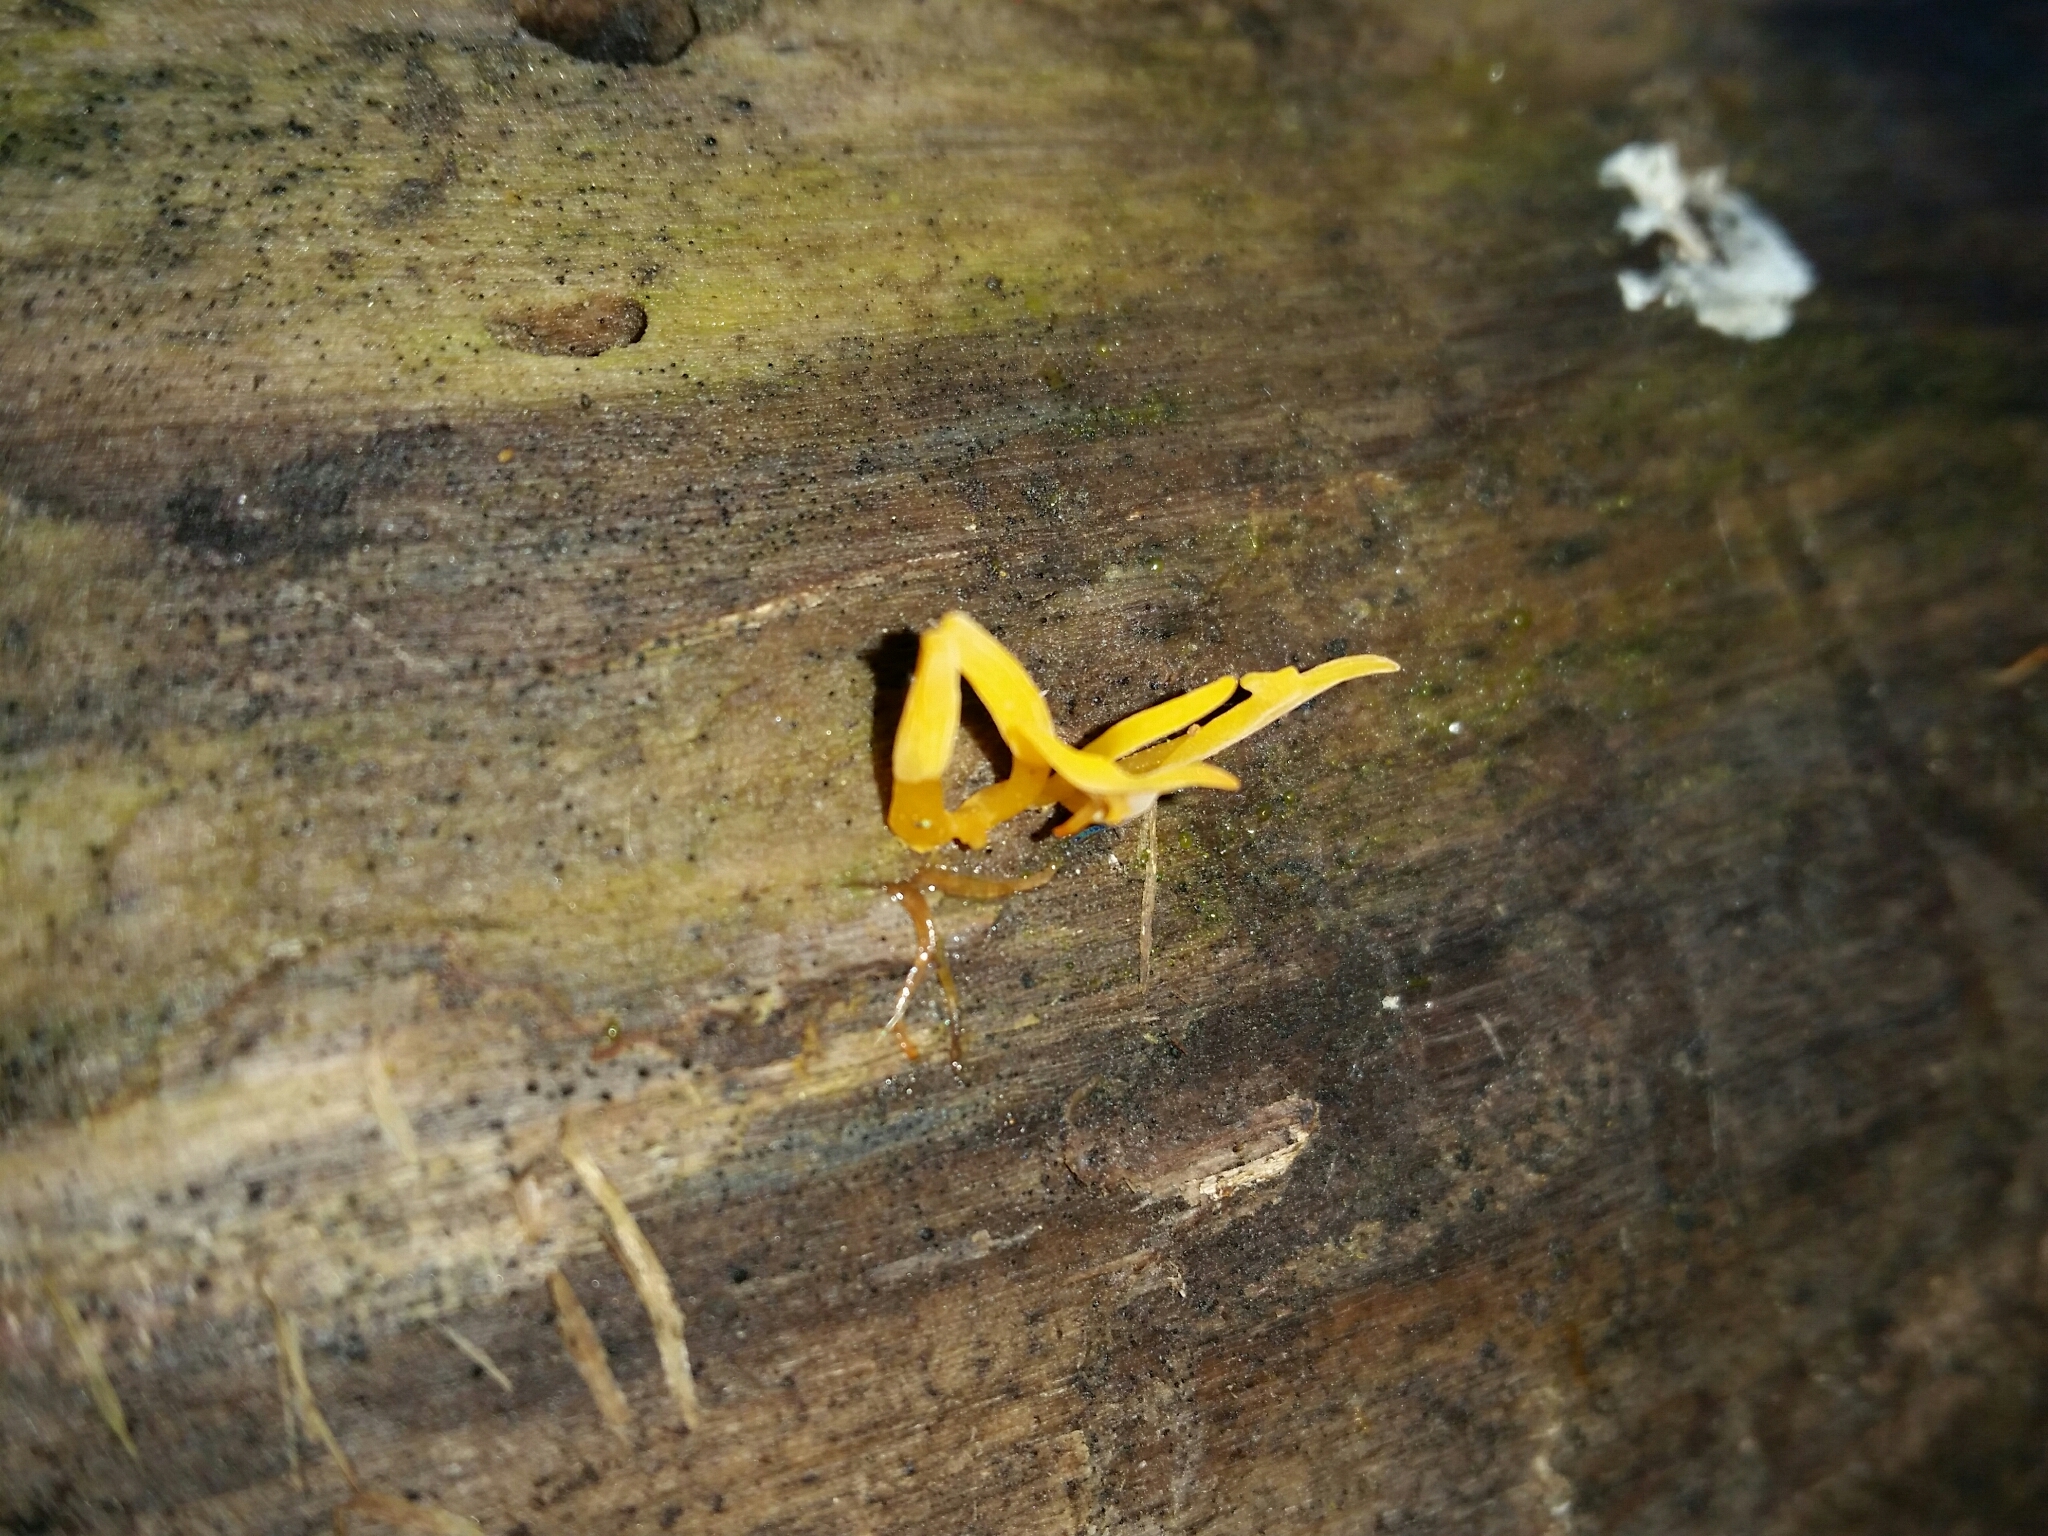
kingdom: Fungi
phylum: Basidiomycota
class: Dacrymycetes
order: Dacrymycetales
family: Dacrymycetaceae
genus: Calocera
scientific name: Calocera cornea
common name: Small stagshorn
